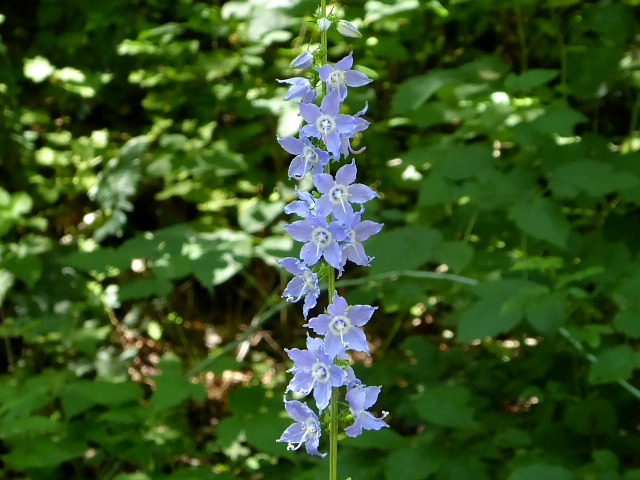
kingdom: Plantae
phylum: Tracheophyta
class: Magnoliopsida
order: Asterales
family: Campanulaceae
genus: Campanulastrum
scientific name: Campanulastrum americanum
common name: American bellflower
